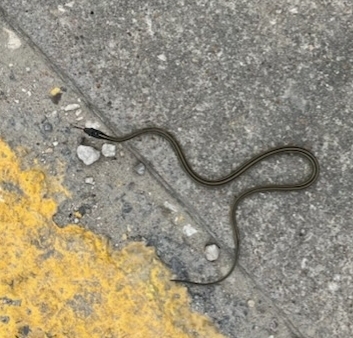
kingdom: Animalia
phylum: Chordata
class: Squamata
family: Colubridae
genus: Thamnophis
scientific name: Thamnophis proximus
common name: Western ribbon snake
